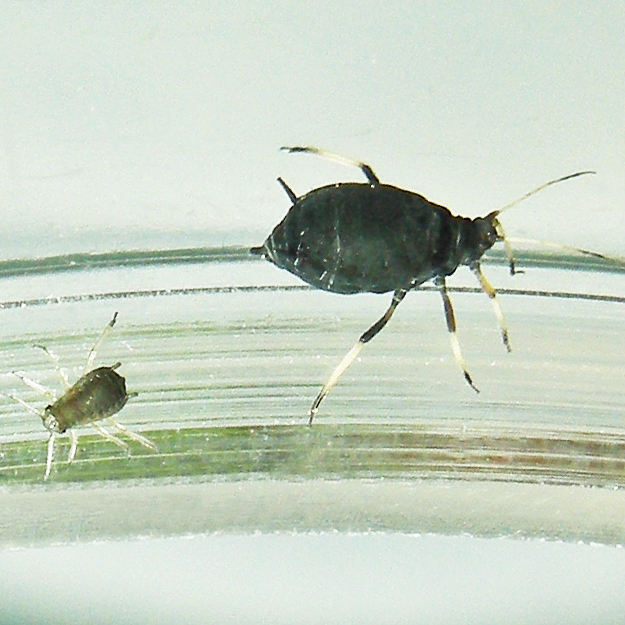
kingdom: Animalia
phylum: Arthropoda
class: Insecta
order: Hemiptera
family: Aphididae
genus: Aphis
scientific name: Aphis fabae
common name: Bean aphid
